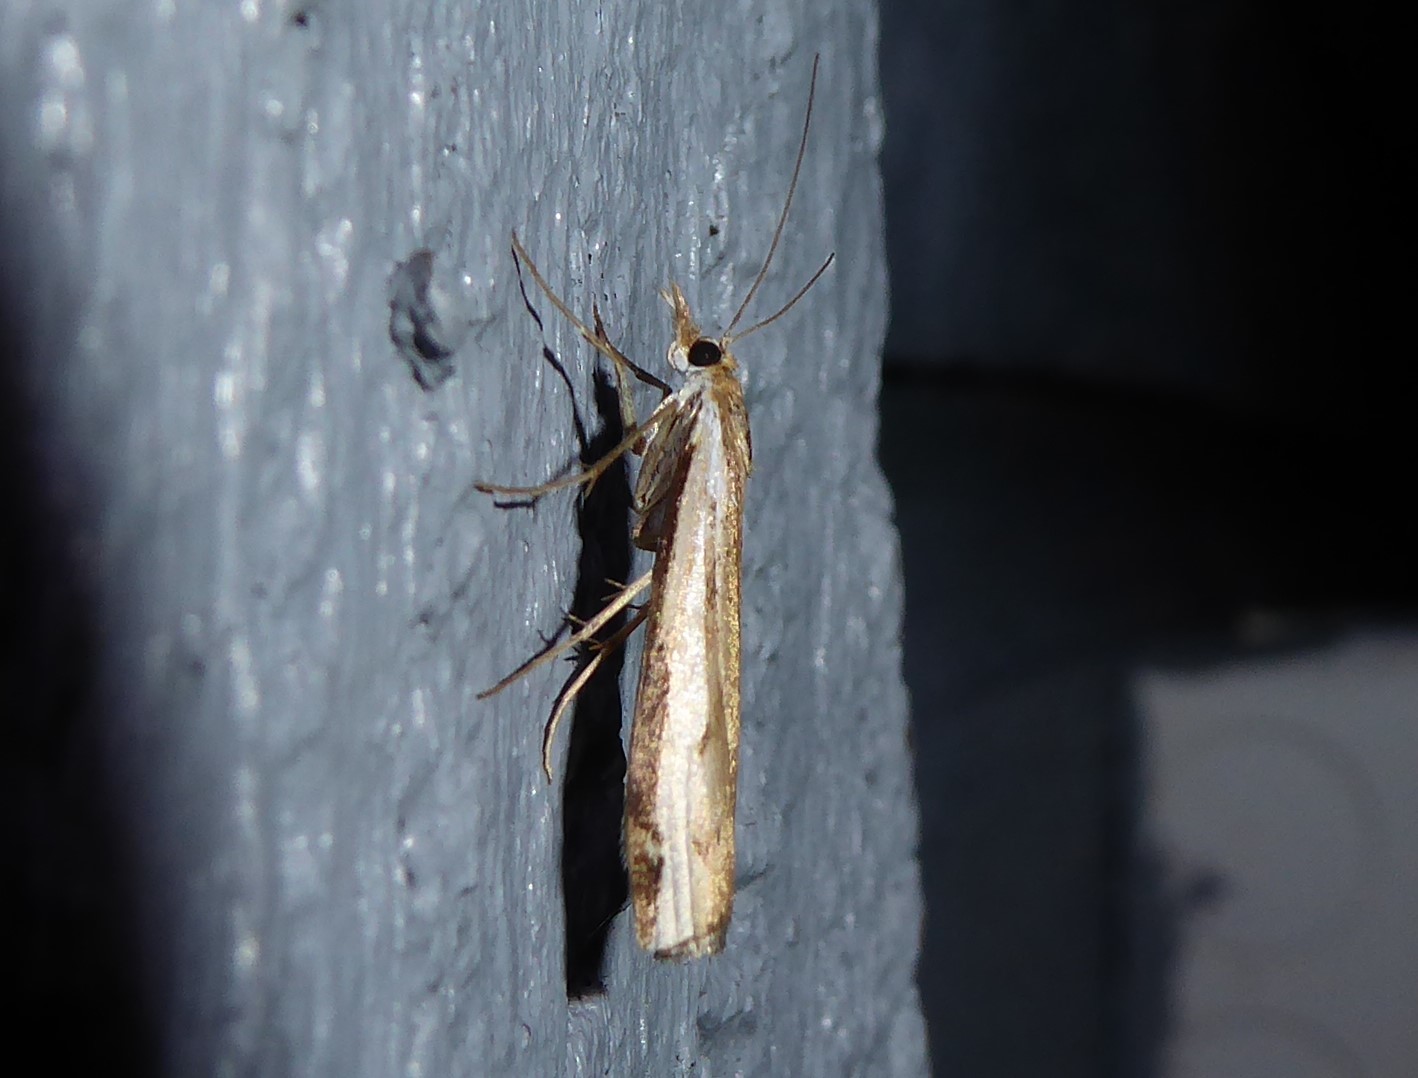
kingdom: Animalia
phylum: Arthropoda
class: Insecta
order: Lepidoptera
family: Crambidae
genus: Orocrambus
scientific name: Orocrambus flexuosellus
